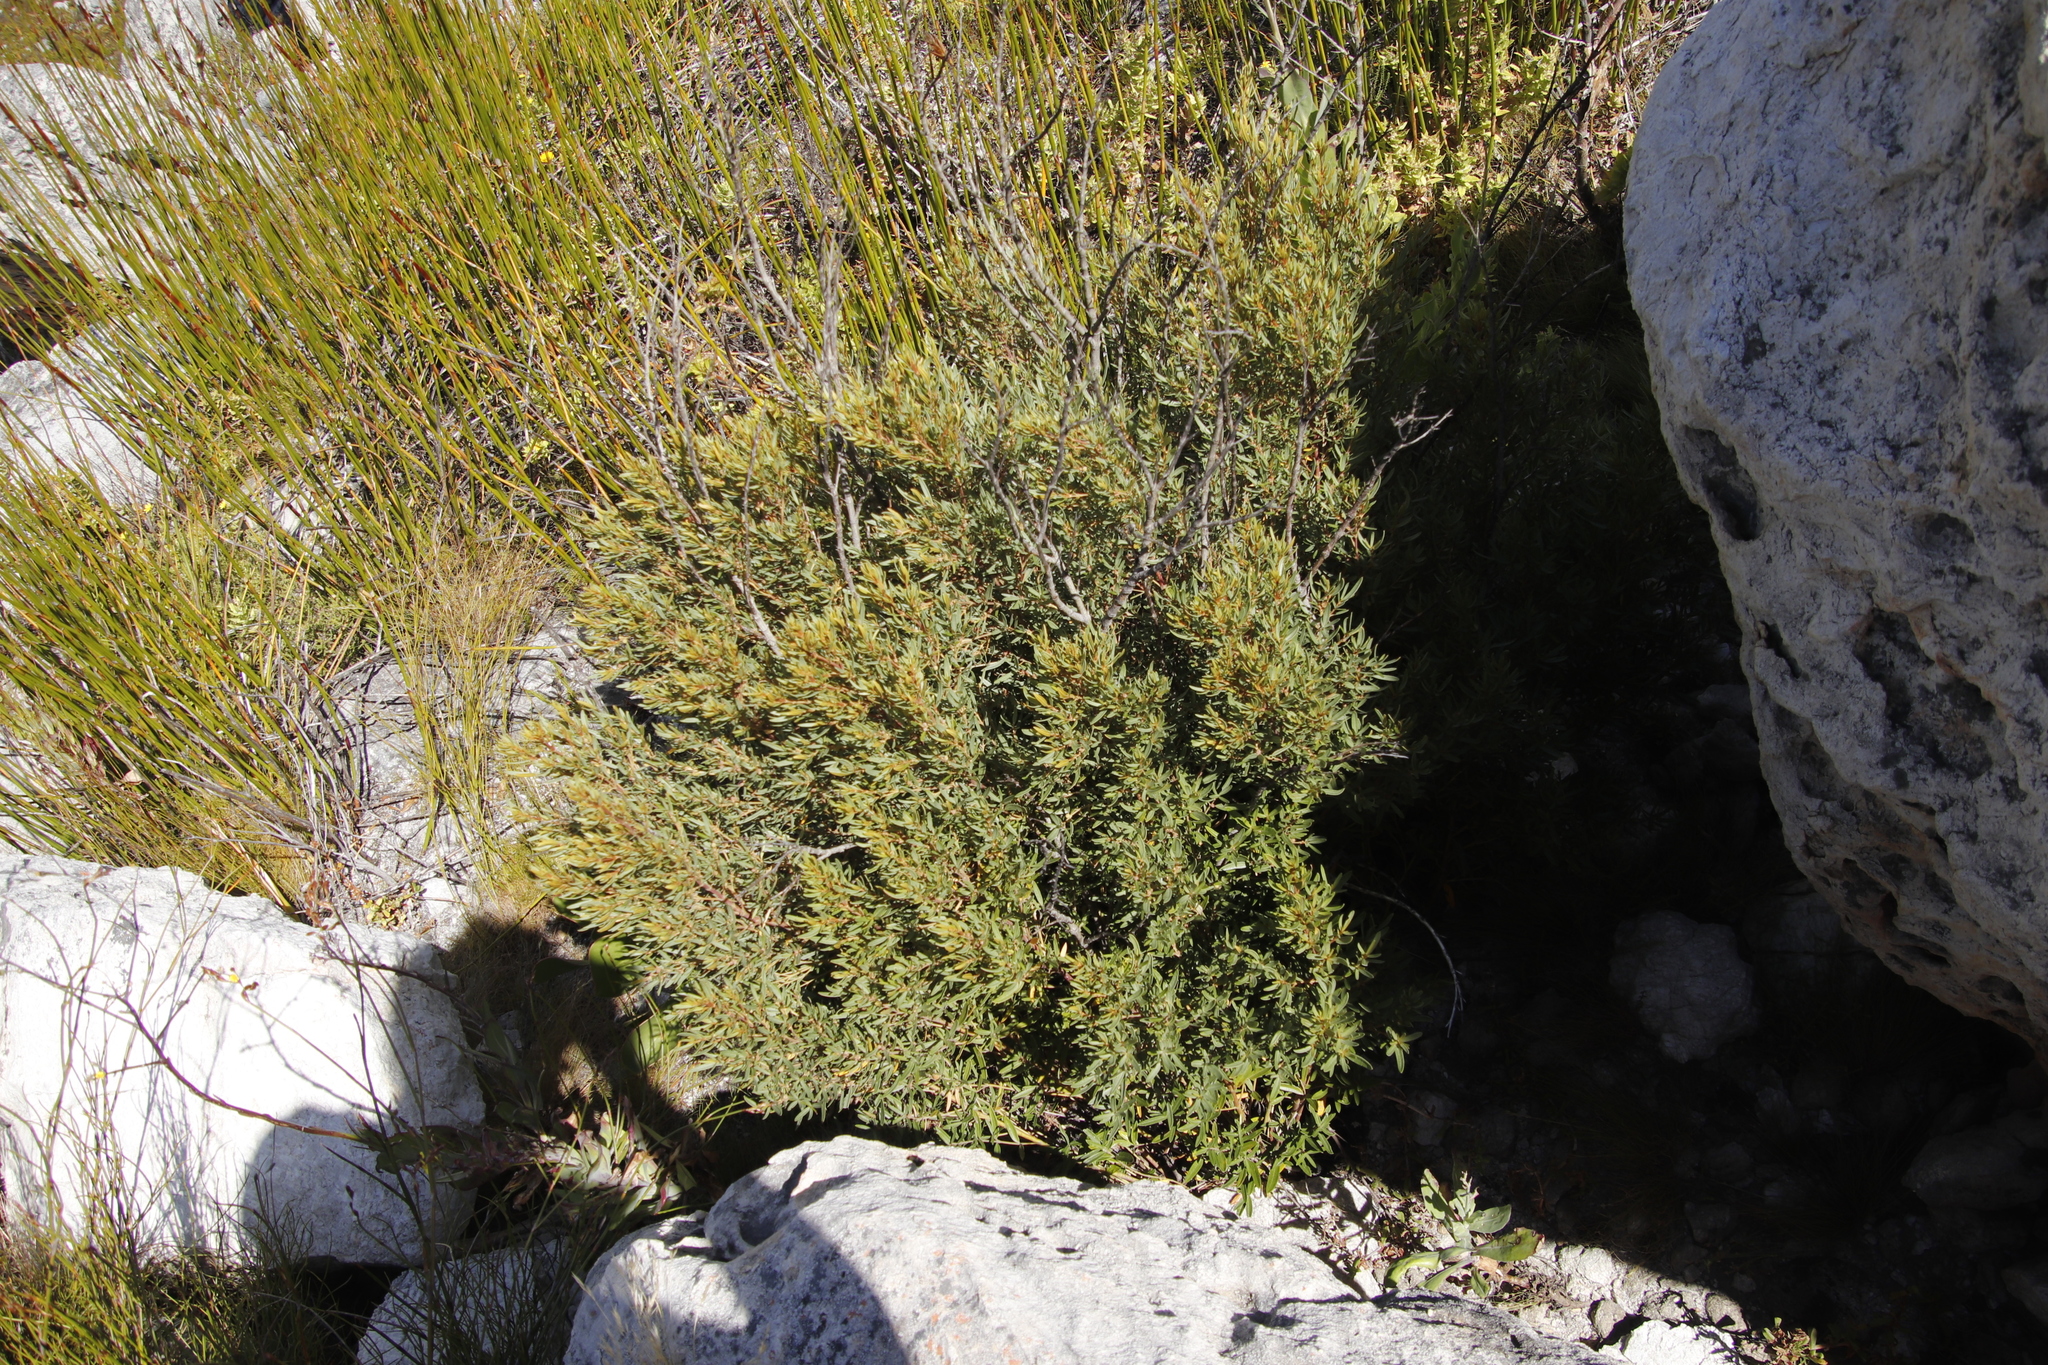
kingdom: Plantae
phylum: Tracheophyta
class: Magnoliopsida
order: Cornales
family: Grubbiaceae
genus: Grubbia
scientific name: Grubbia tomentosa
